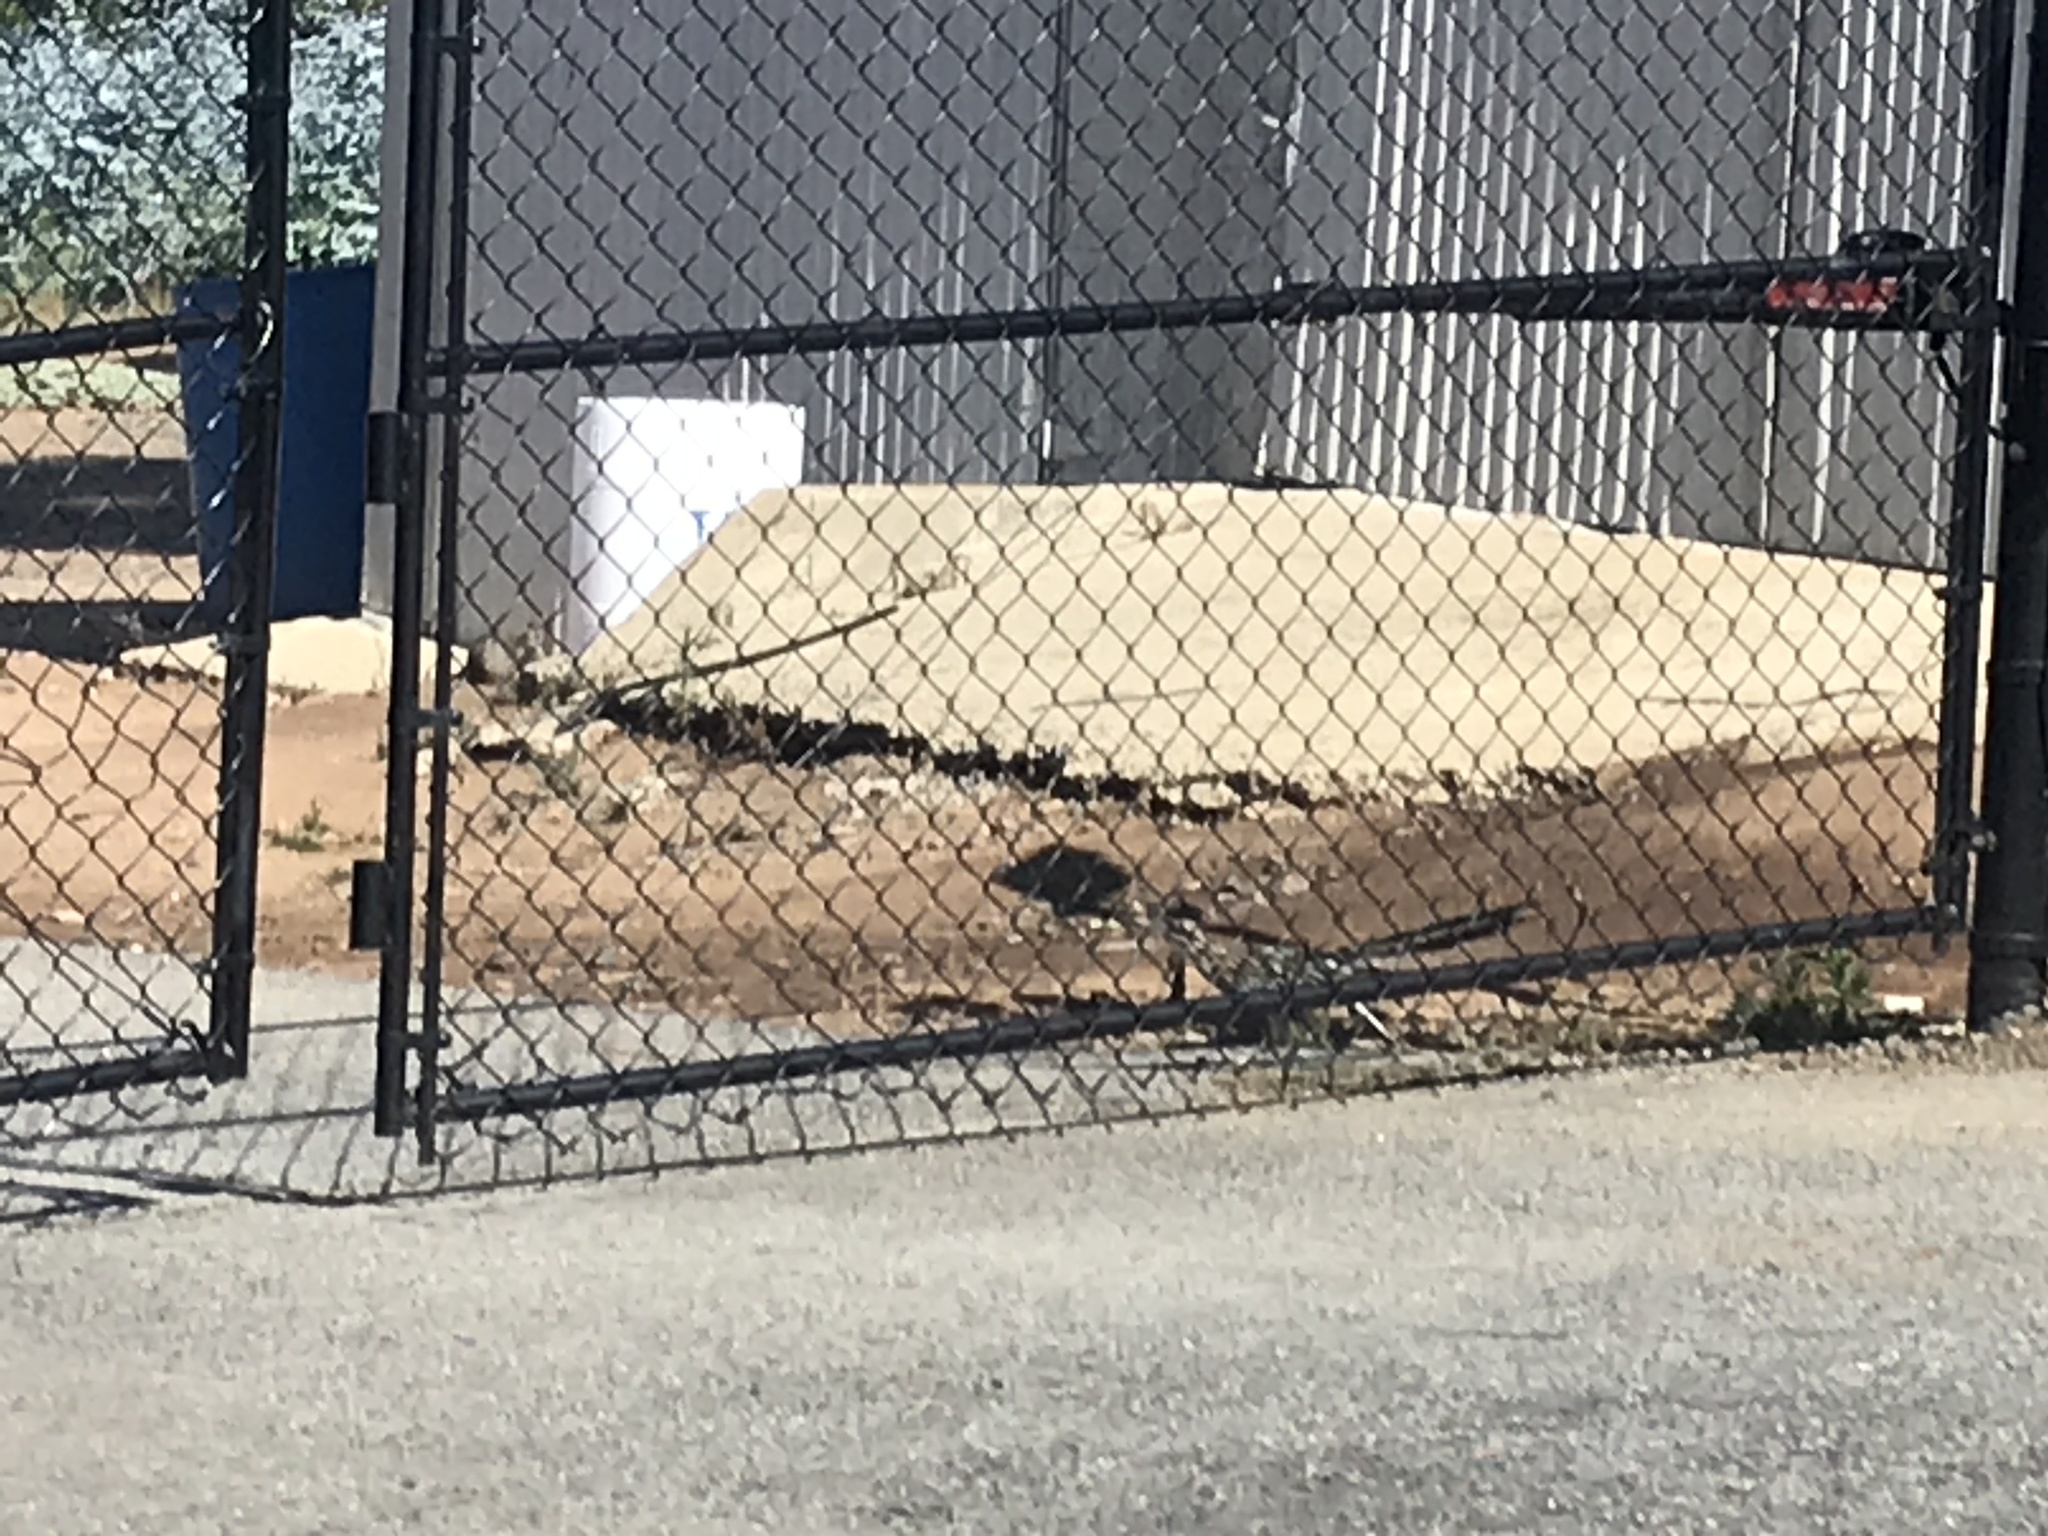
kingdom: Animalia
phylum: Chordata
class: Aves
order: Cuculiformes
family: Cuculidae
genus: Geococcyx
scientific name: Geococcyx californianus
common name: Greater roadrunner
